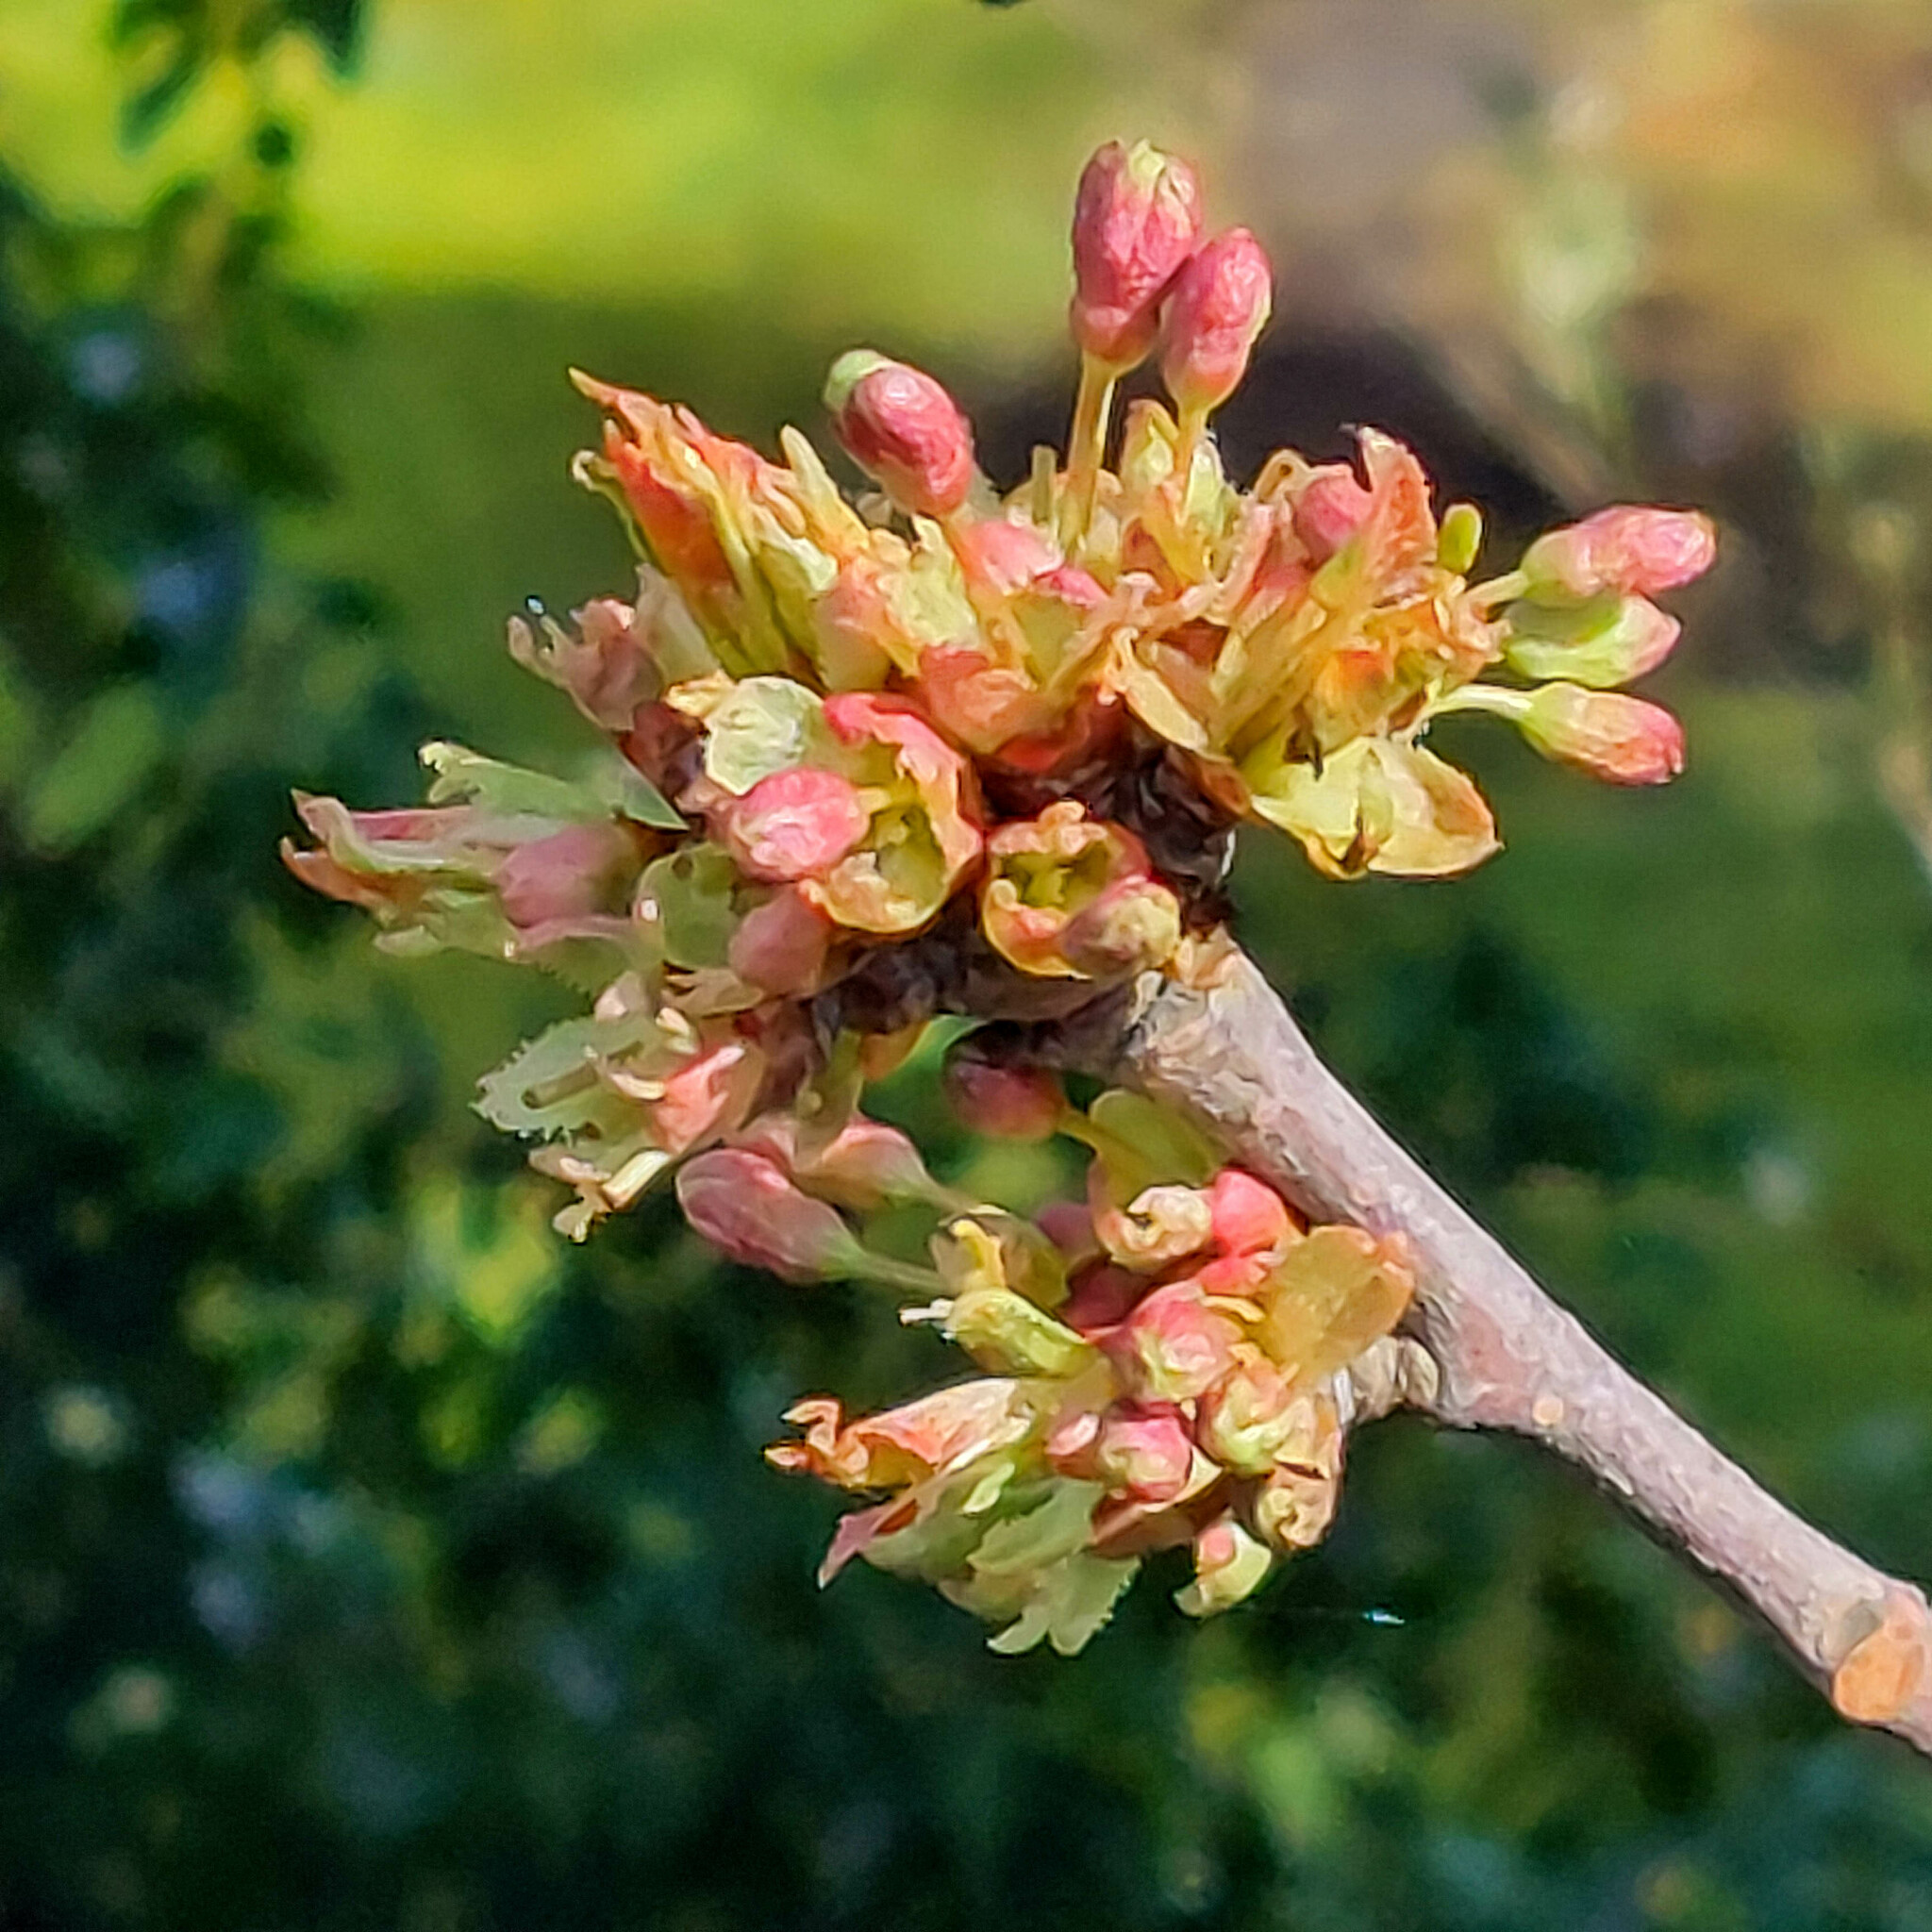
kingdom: Plantae
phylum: Tracheophyta
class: Magnoliopsida
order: Sapindales
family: Sapindaceae
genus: Acer
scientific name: Acer negundo
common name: Ashleaf maple
